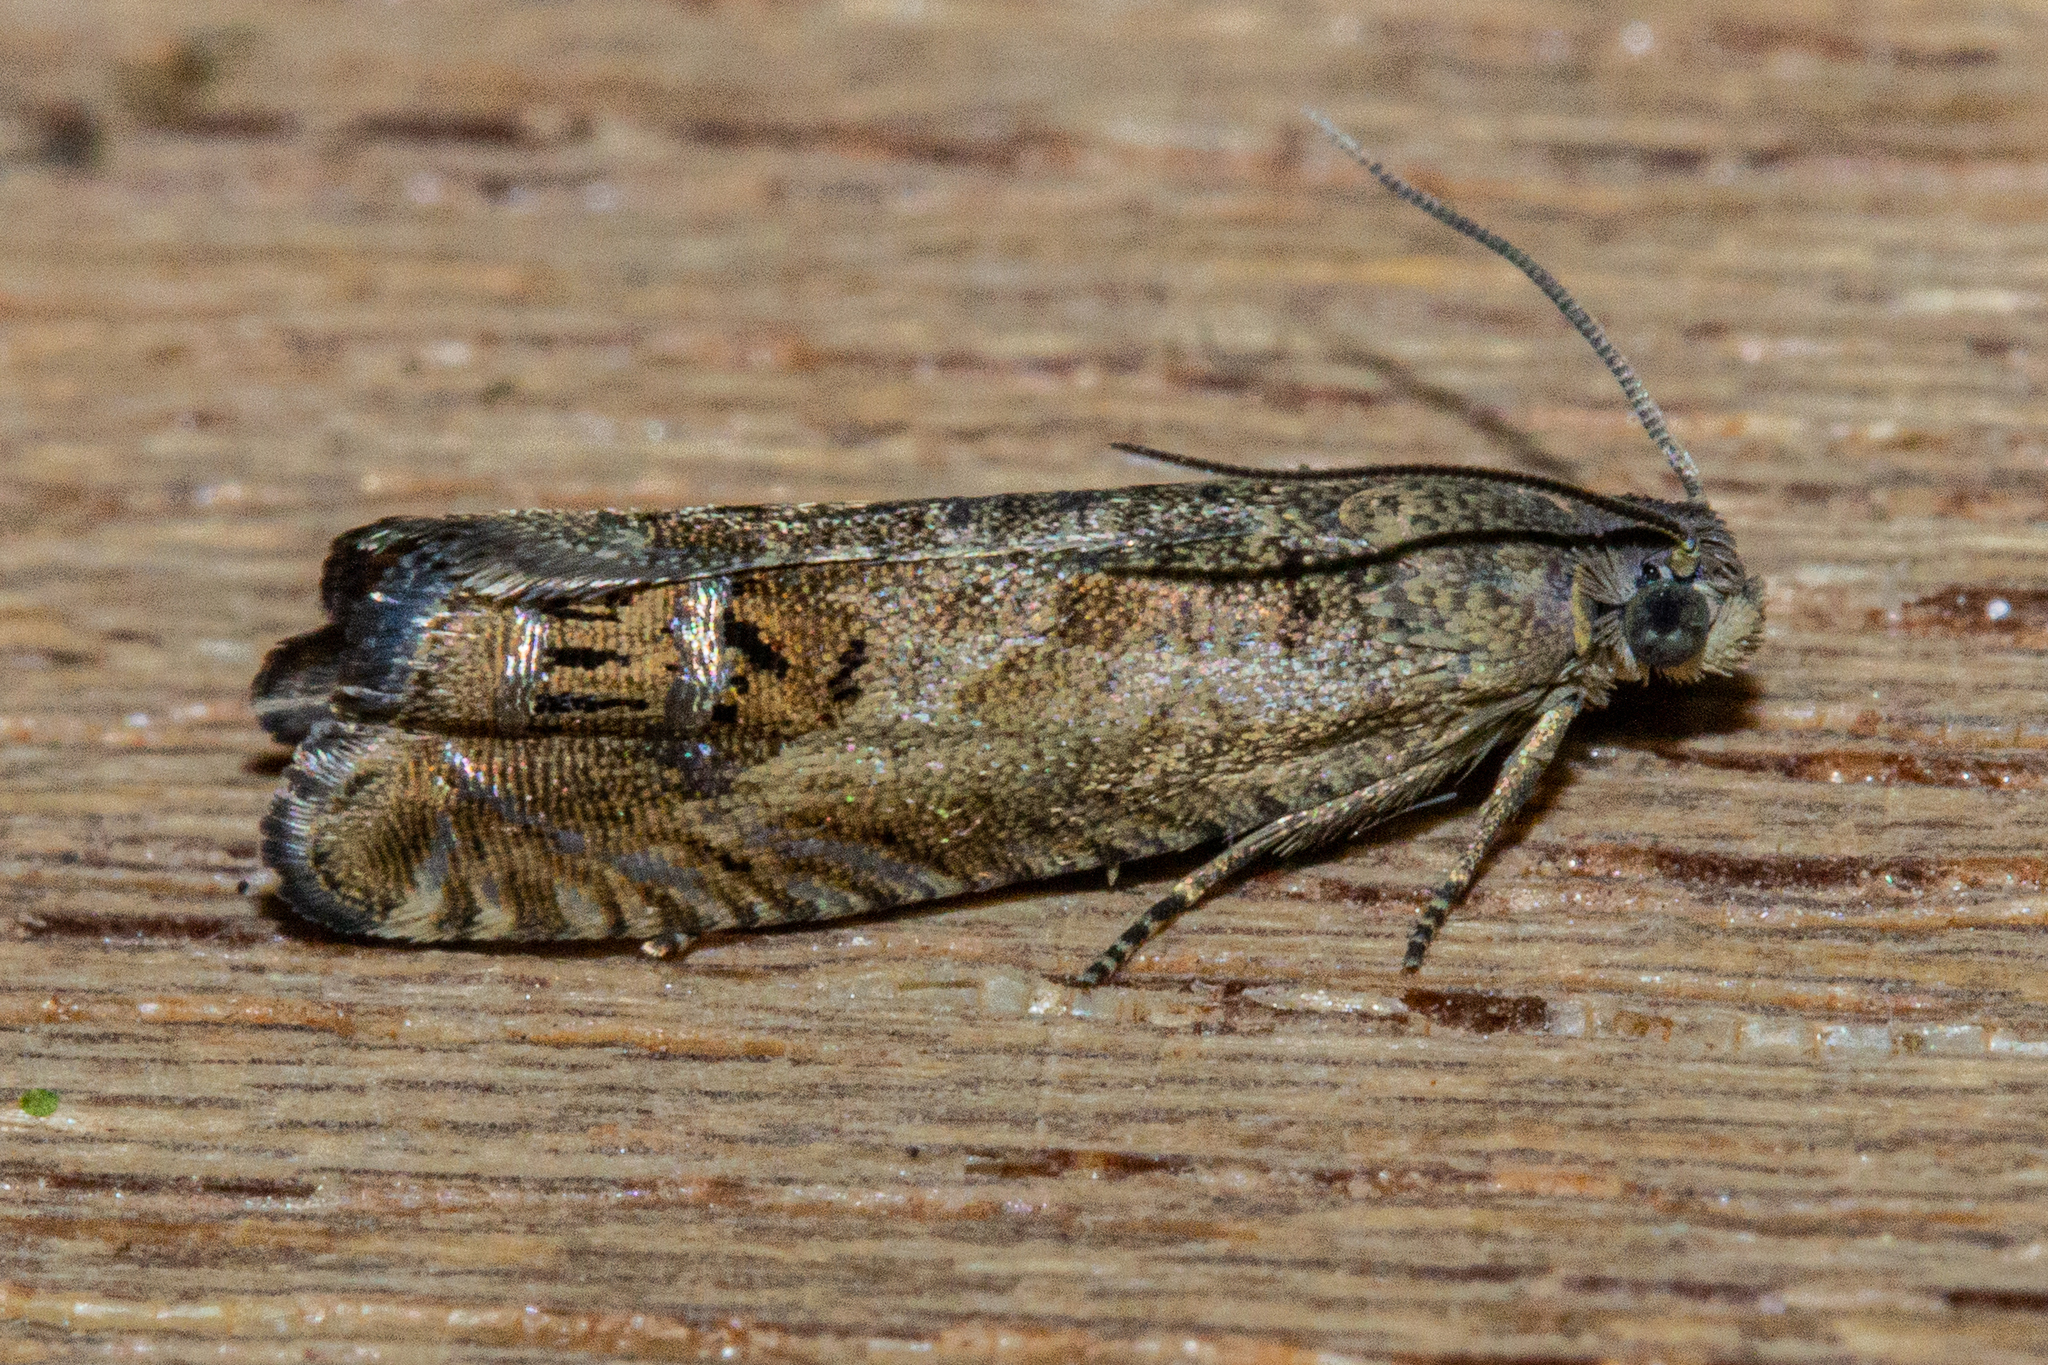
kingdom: Animalia
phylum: Arthropoda
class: Insecta
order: Lepidoptera
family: Tortricidae
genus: Cydia
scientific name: Cydia succedana
